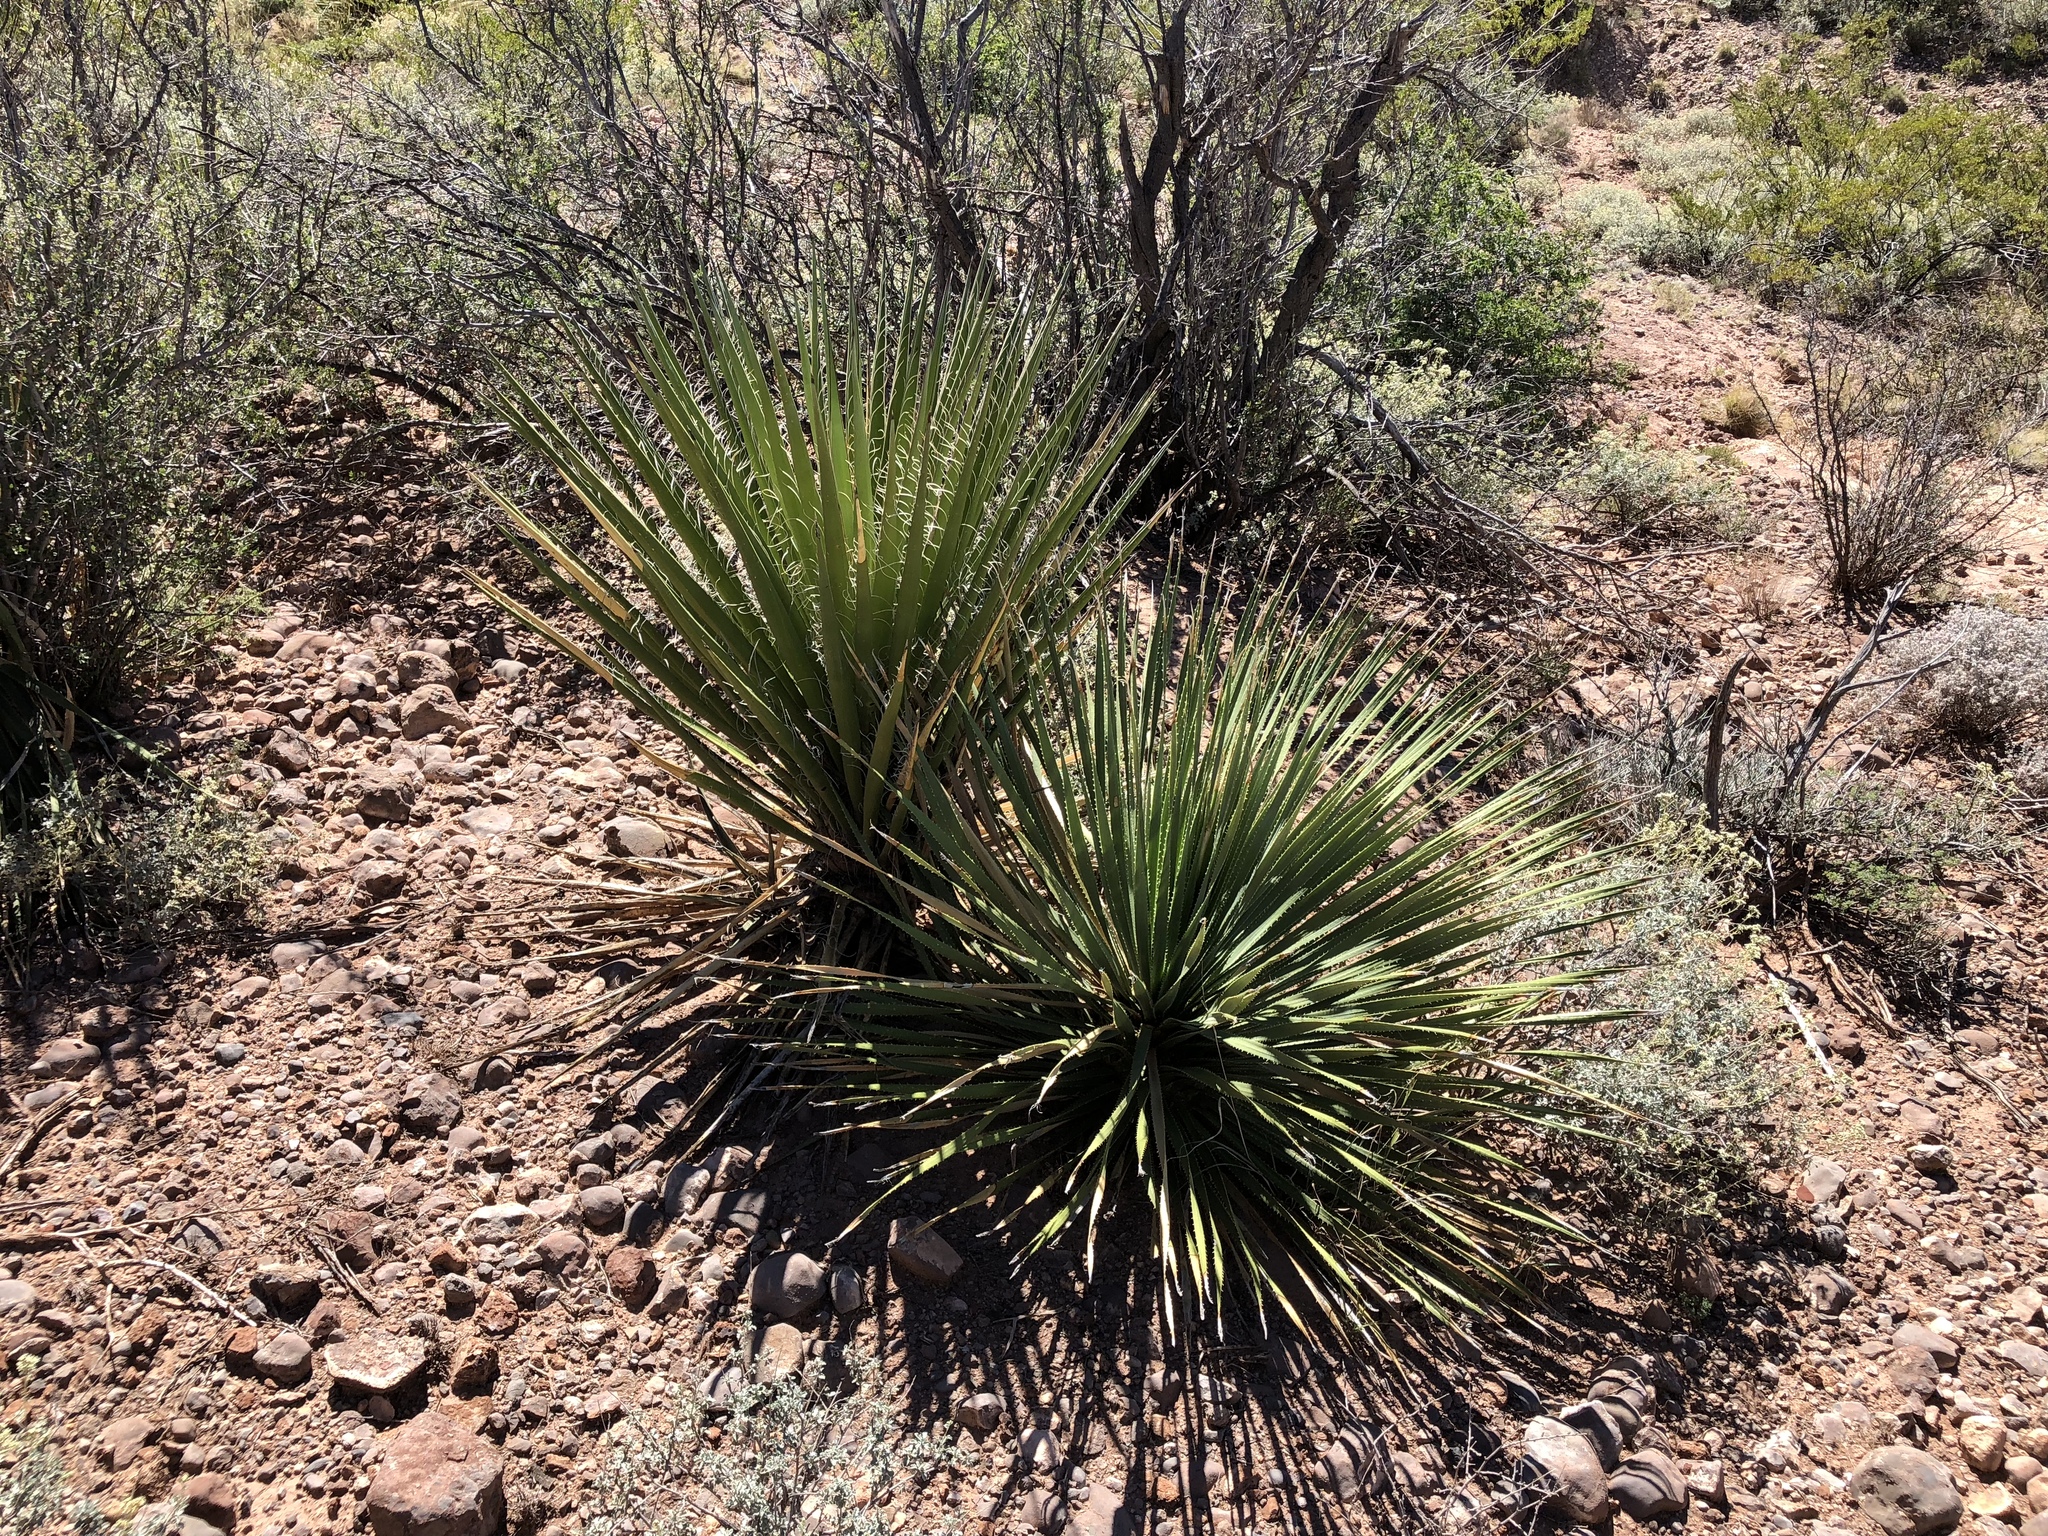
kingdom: Plantae
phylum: Tracheophyta
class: Liliopsida
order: Asparagales
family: Asparagaceae
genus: Dasylirion
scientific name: Dasylirion wheeleri
